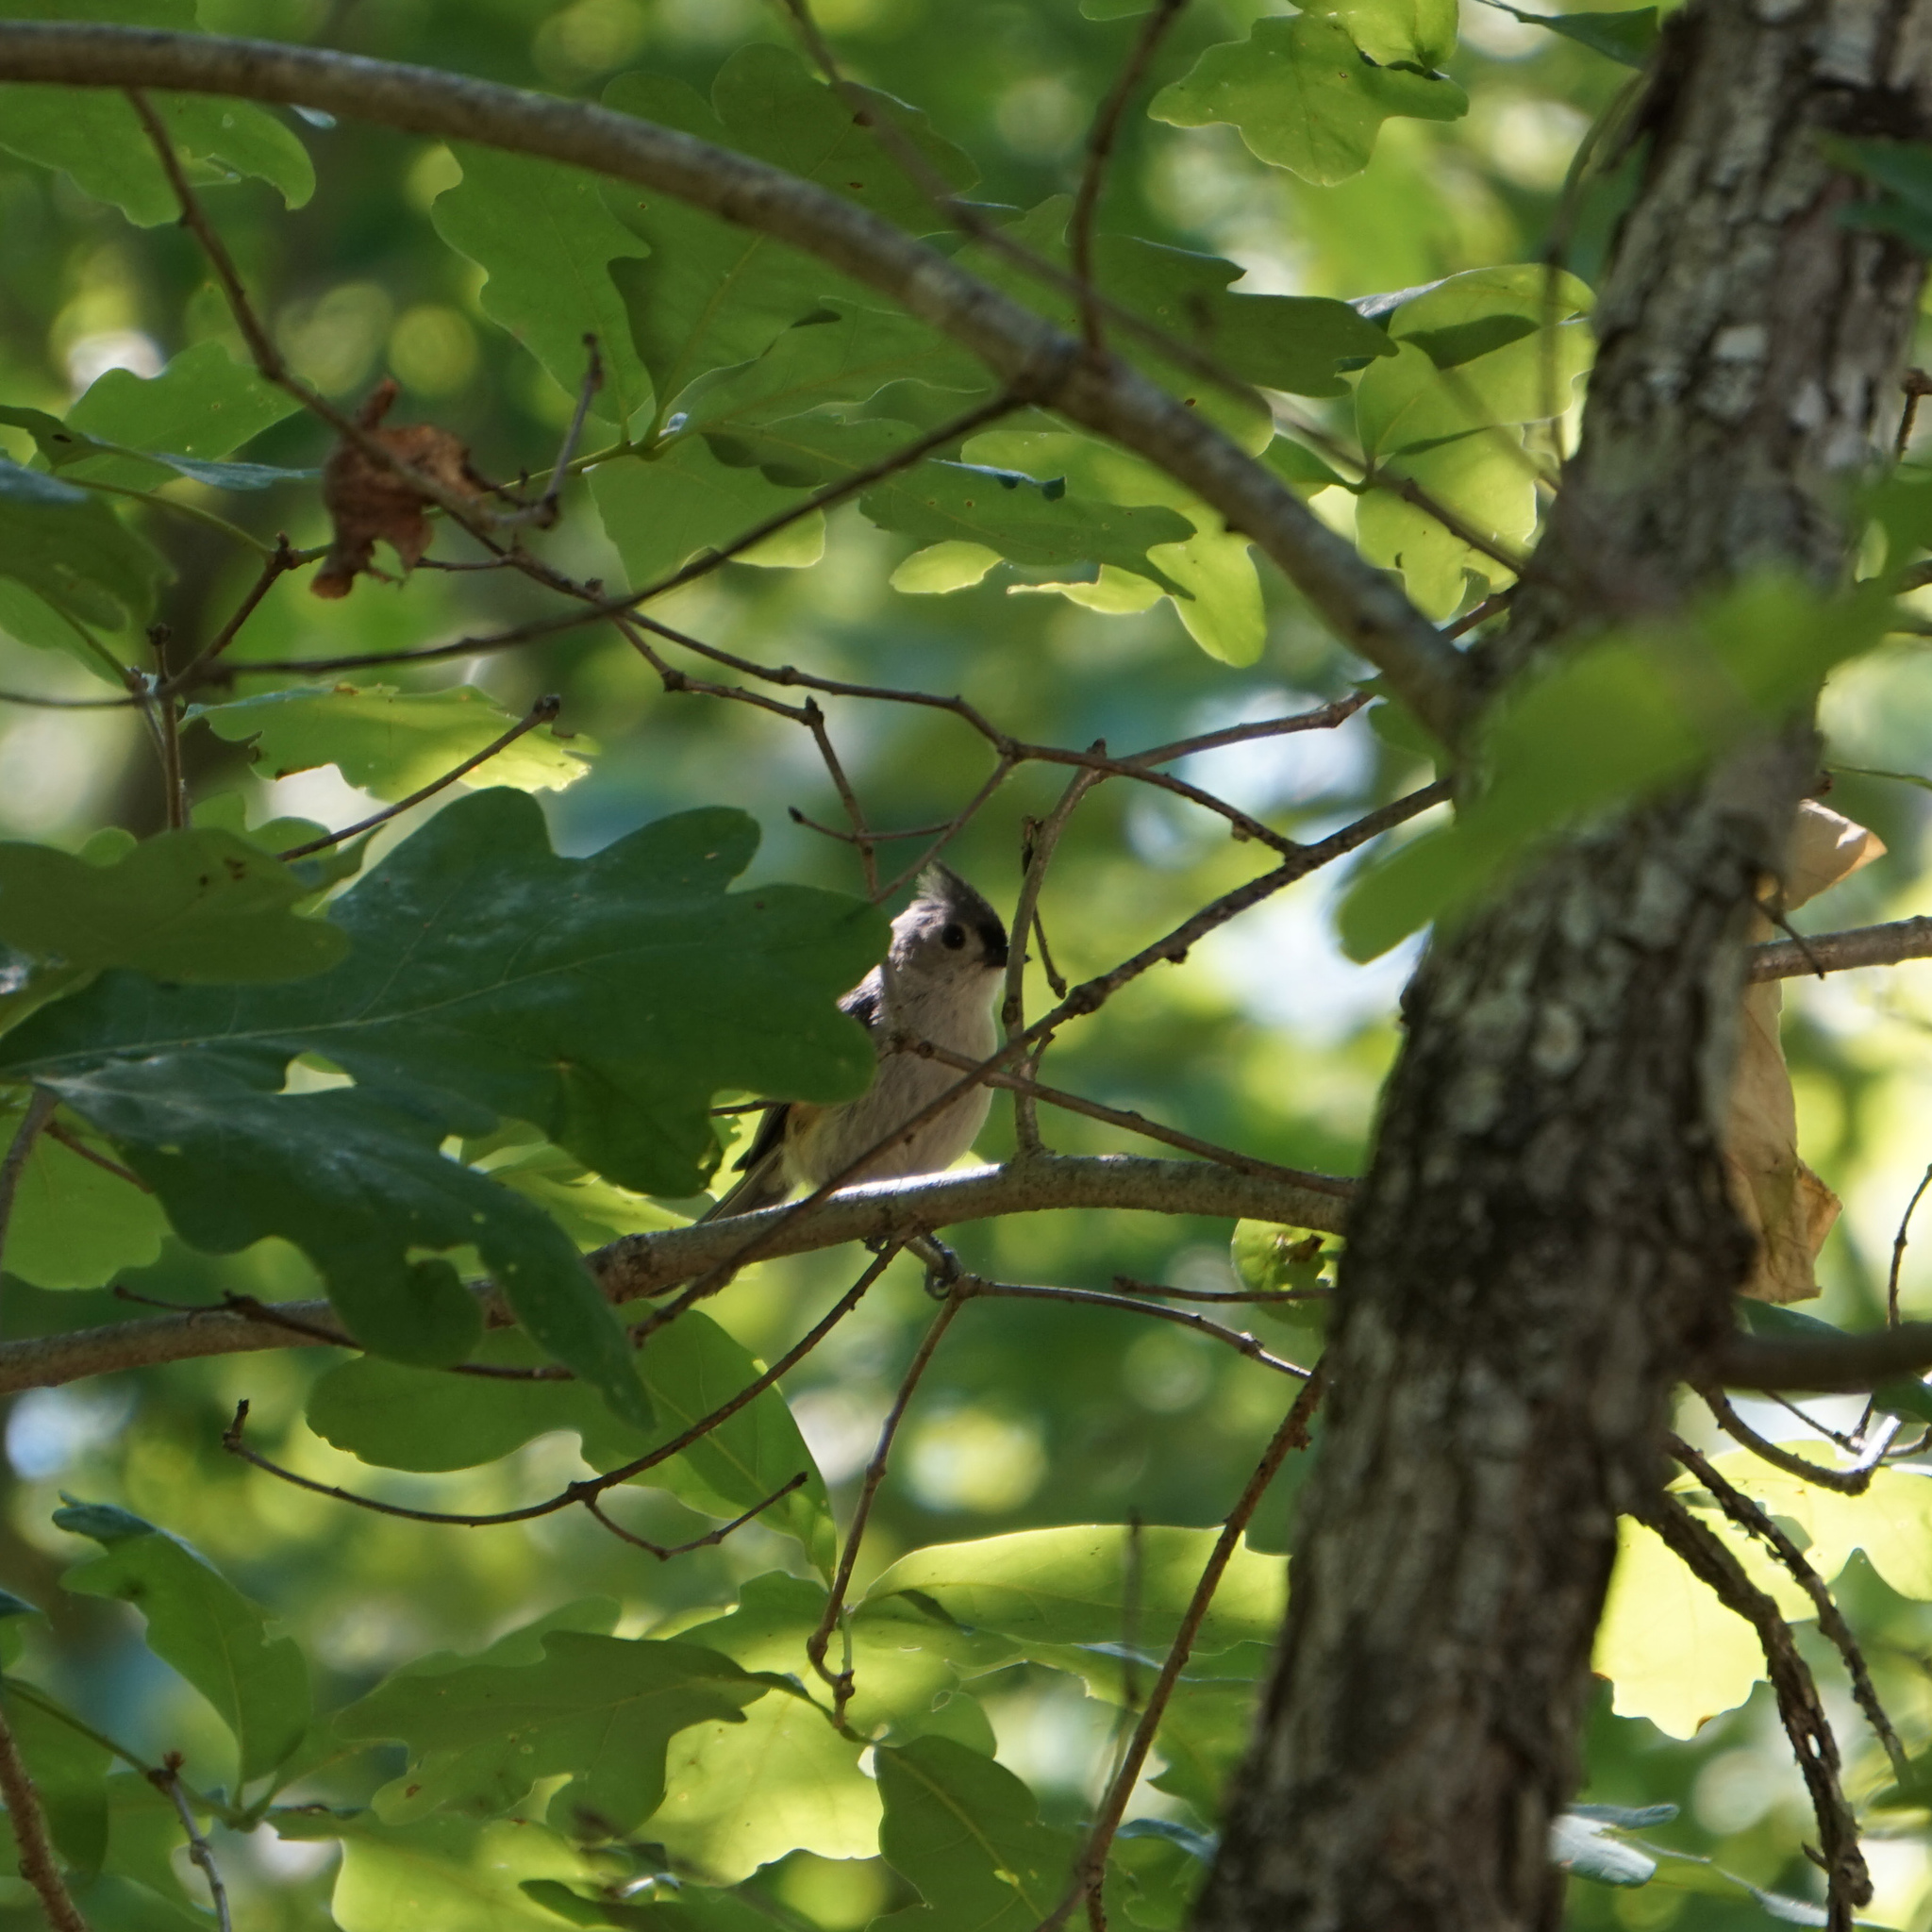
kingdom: Animalia
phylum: Chordata
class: Aves
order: Passeriformes
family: Paridae
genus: Baeolophus
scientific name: Baeolophus bicolor
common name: Tufted titmouse
